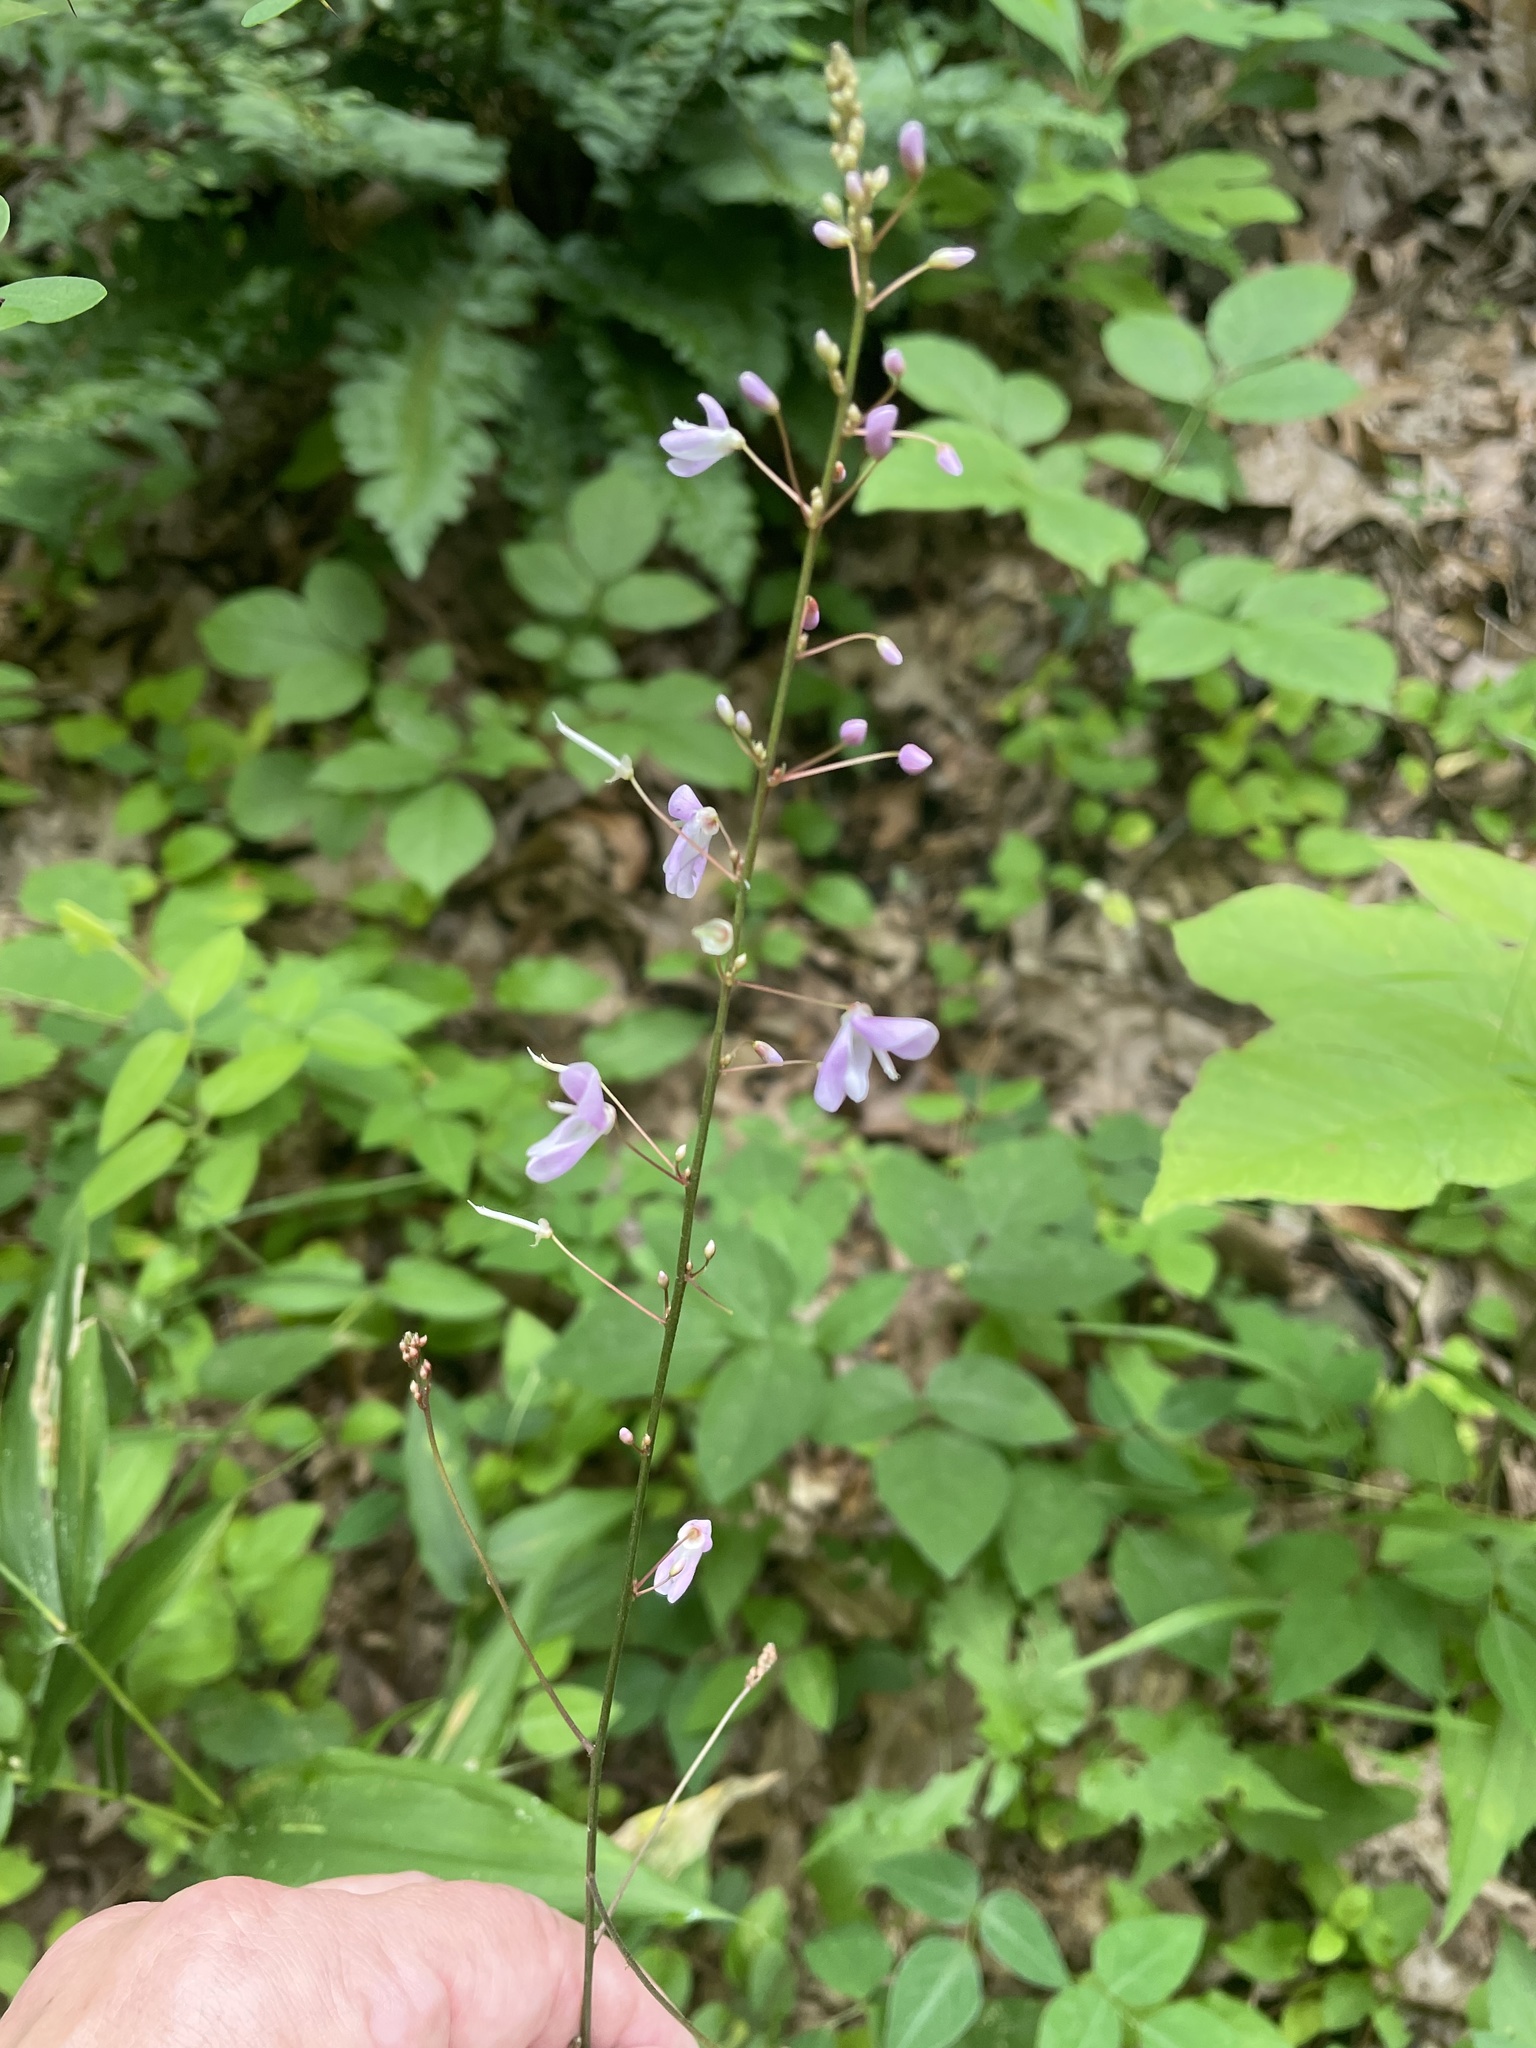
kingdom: Plantae
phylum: Tracheophyta
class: Magnoliopsida
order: Fabales
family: Fabaceae
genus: Hylodesmum
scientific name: Hylodesmum nudiflorum
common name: Bare-stemmed tick-trefoil
